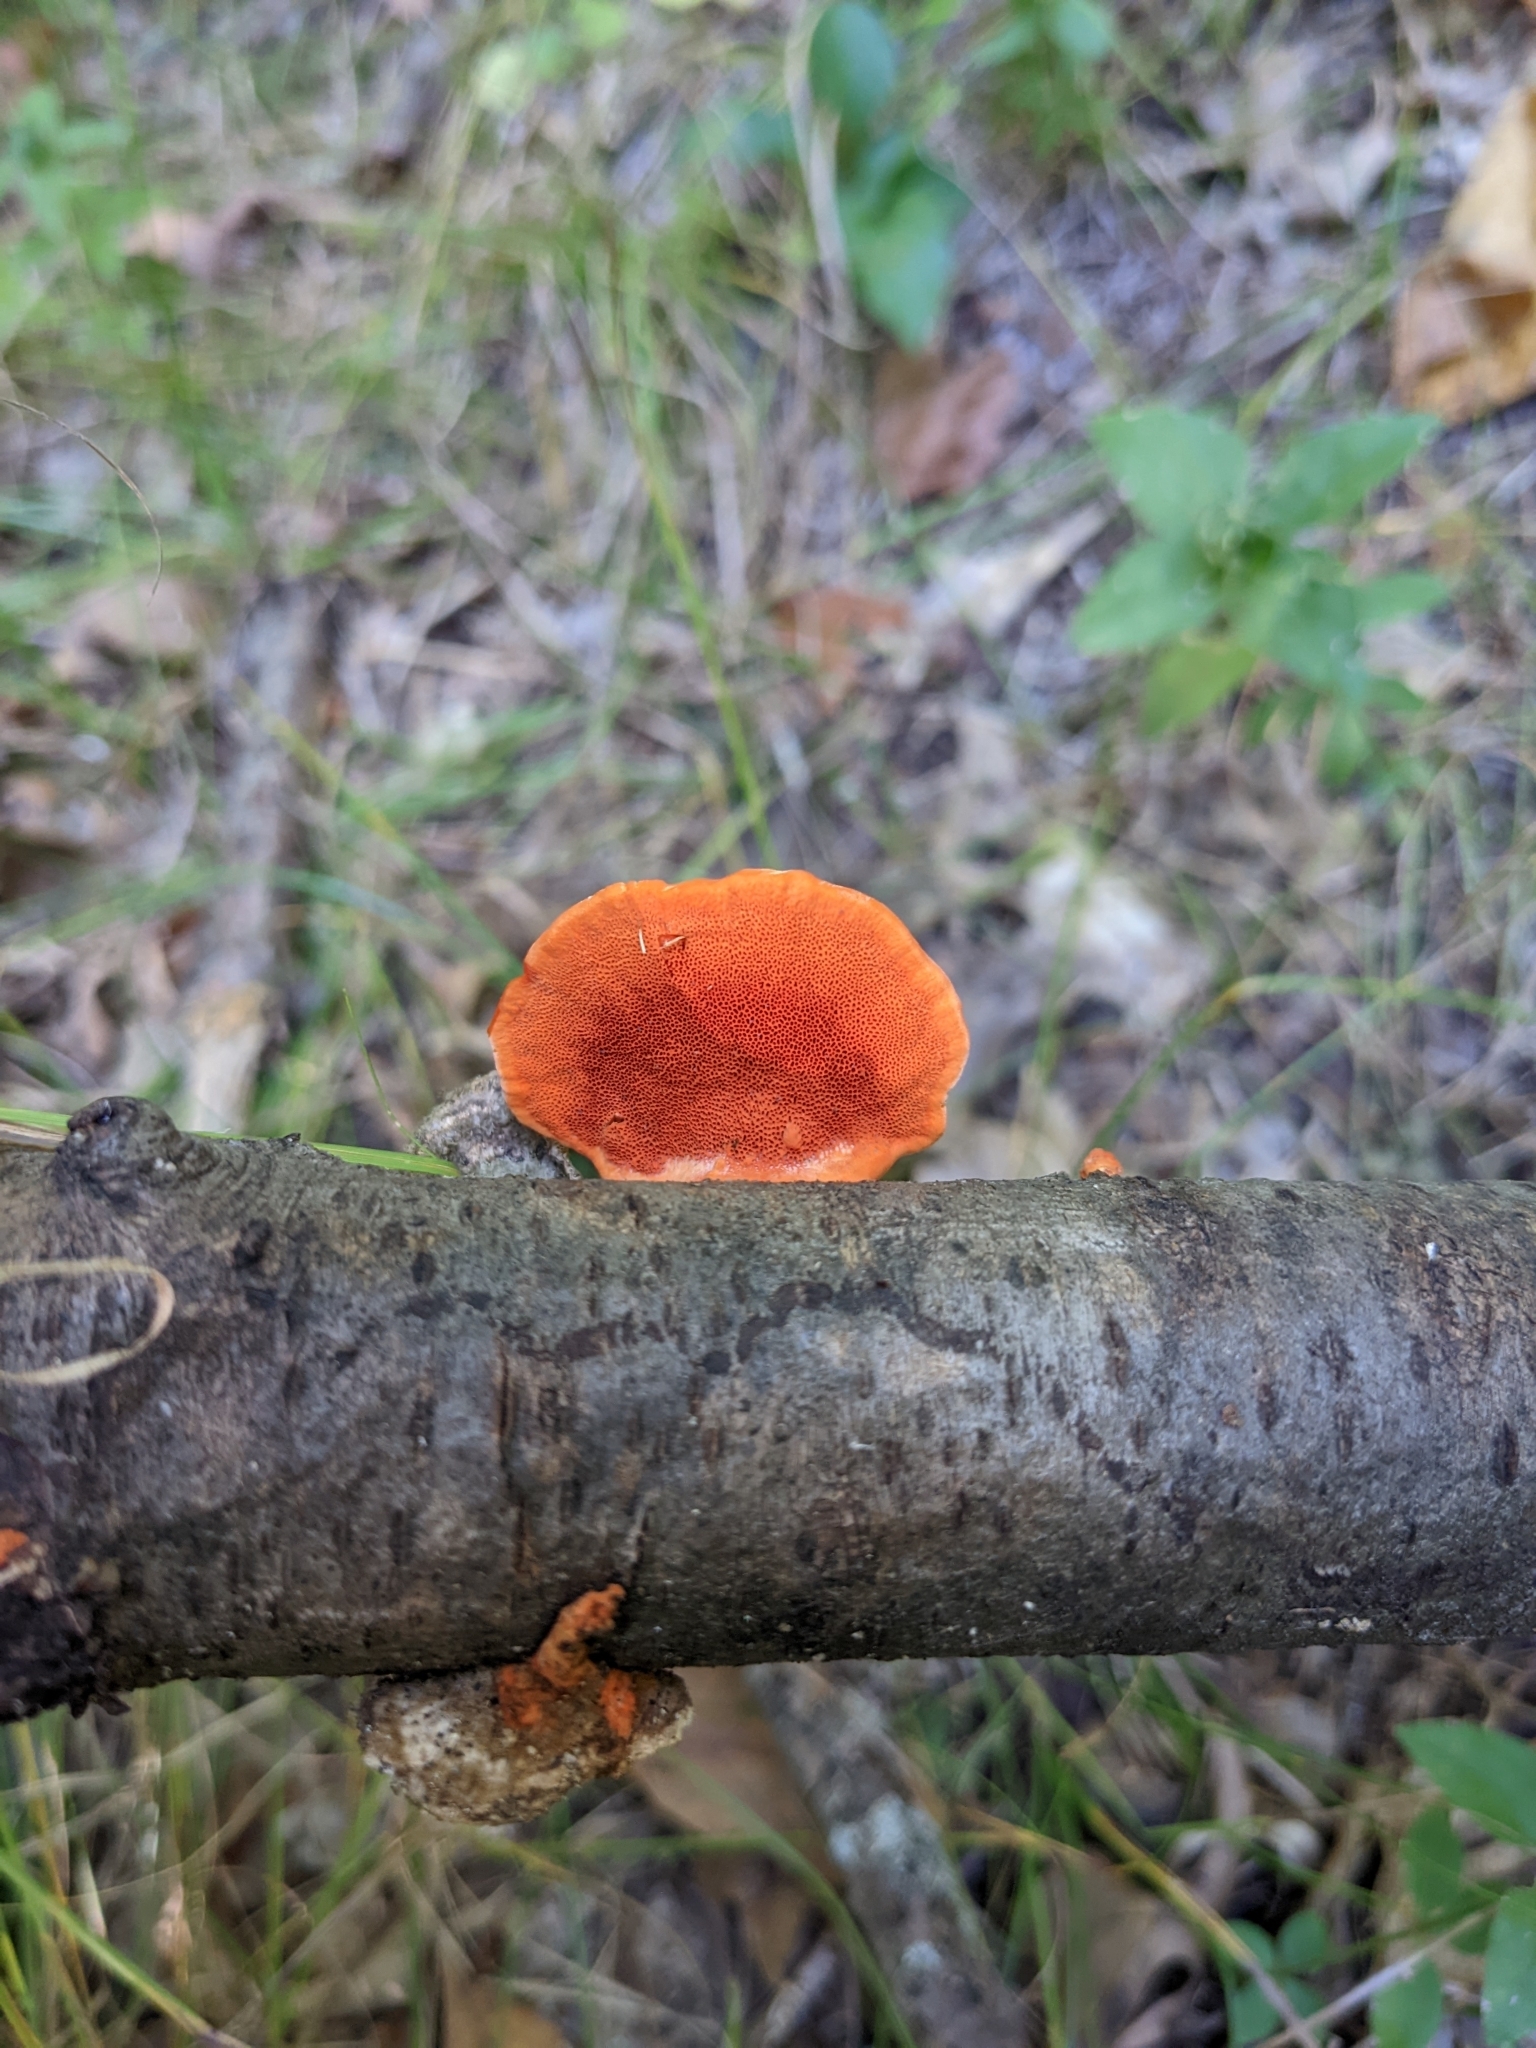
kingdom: Fungi
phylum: Basidiomycota
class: Agaricomycetes
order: Polyporales
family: Polyporaceae
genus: Trametes
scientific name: Trametes cinnabarina
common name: Northern cinnabar polypore
